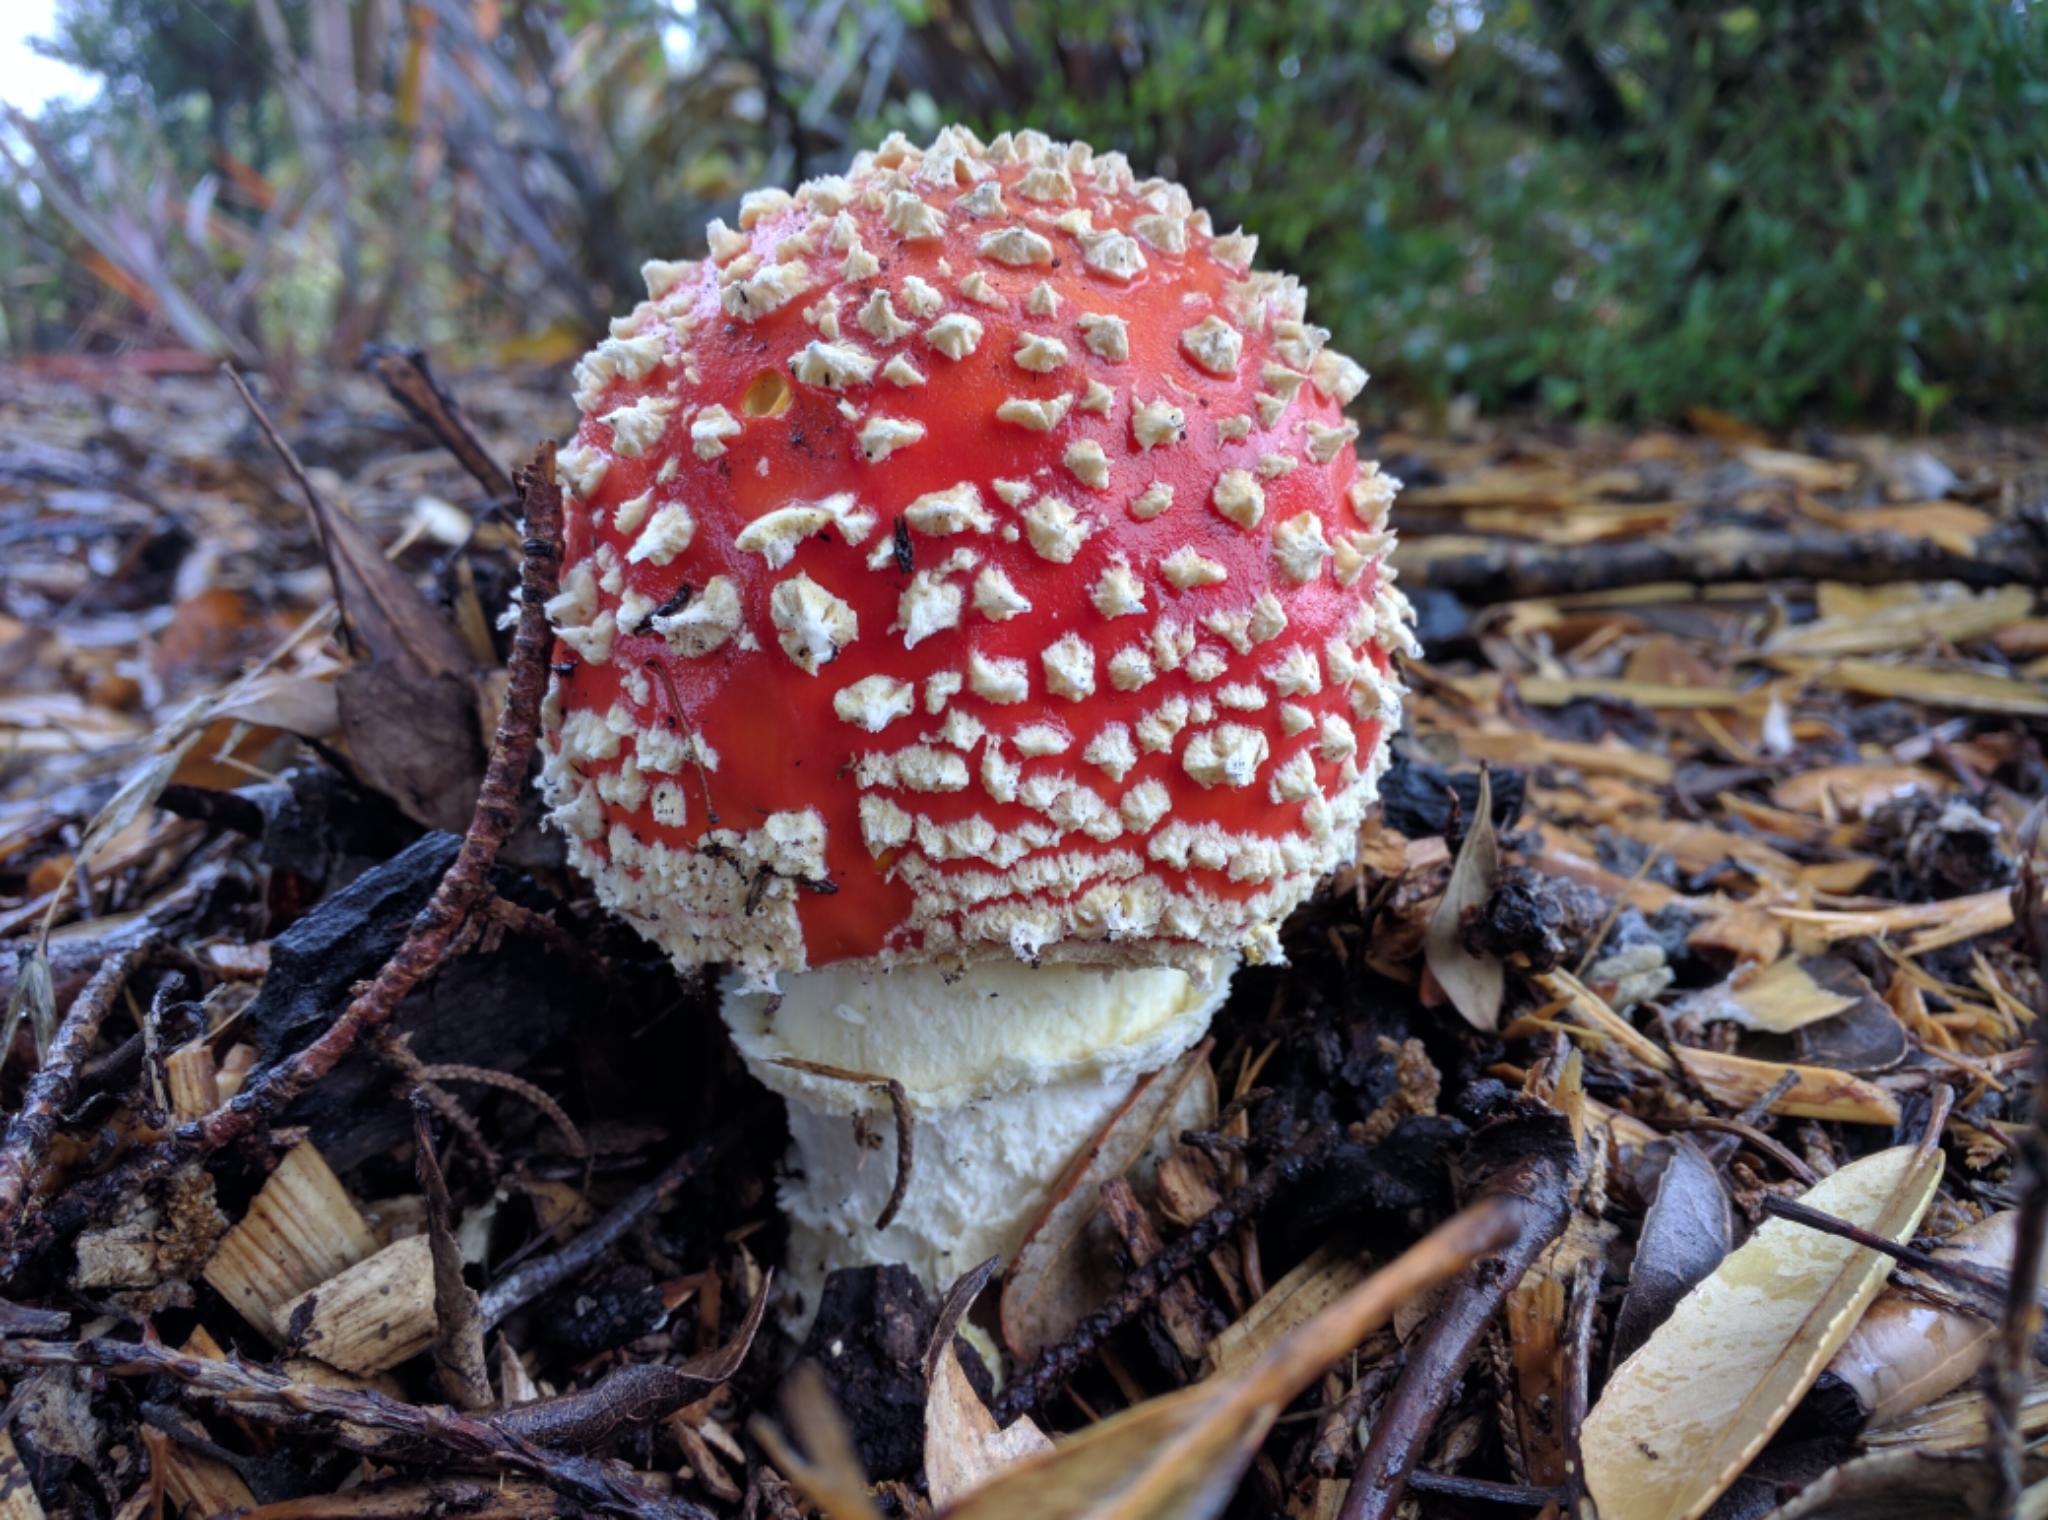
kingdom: Fungi
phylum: Basidiomycota
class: Agaricomycetes
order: Agaricales
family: Amanitaceae
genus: Amanita
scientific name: Amanita muscaria
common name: Fly agaric
